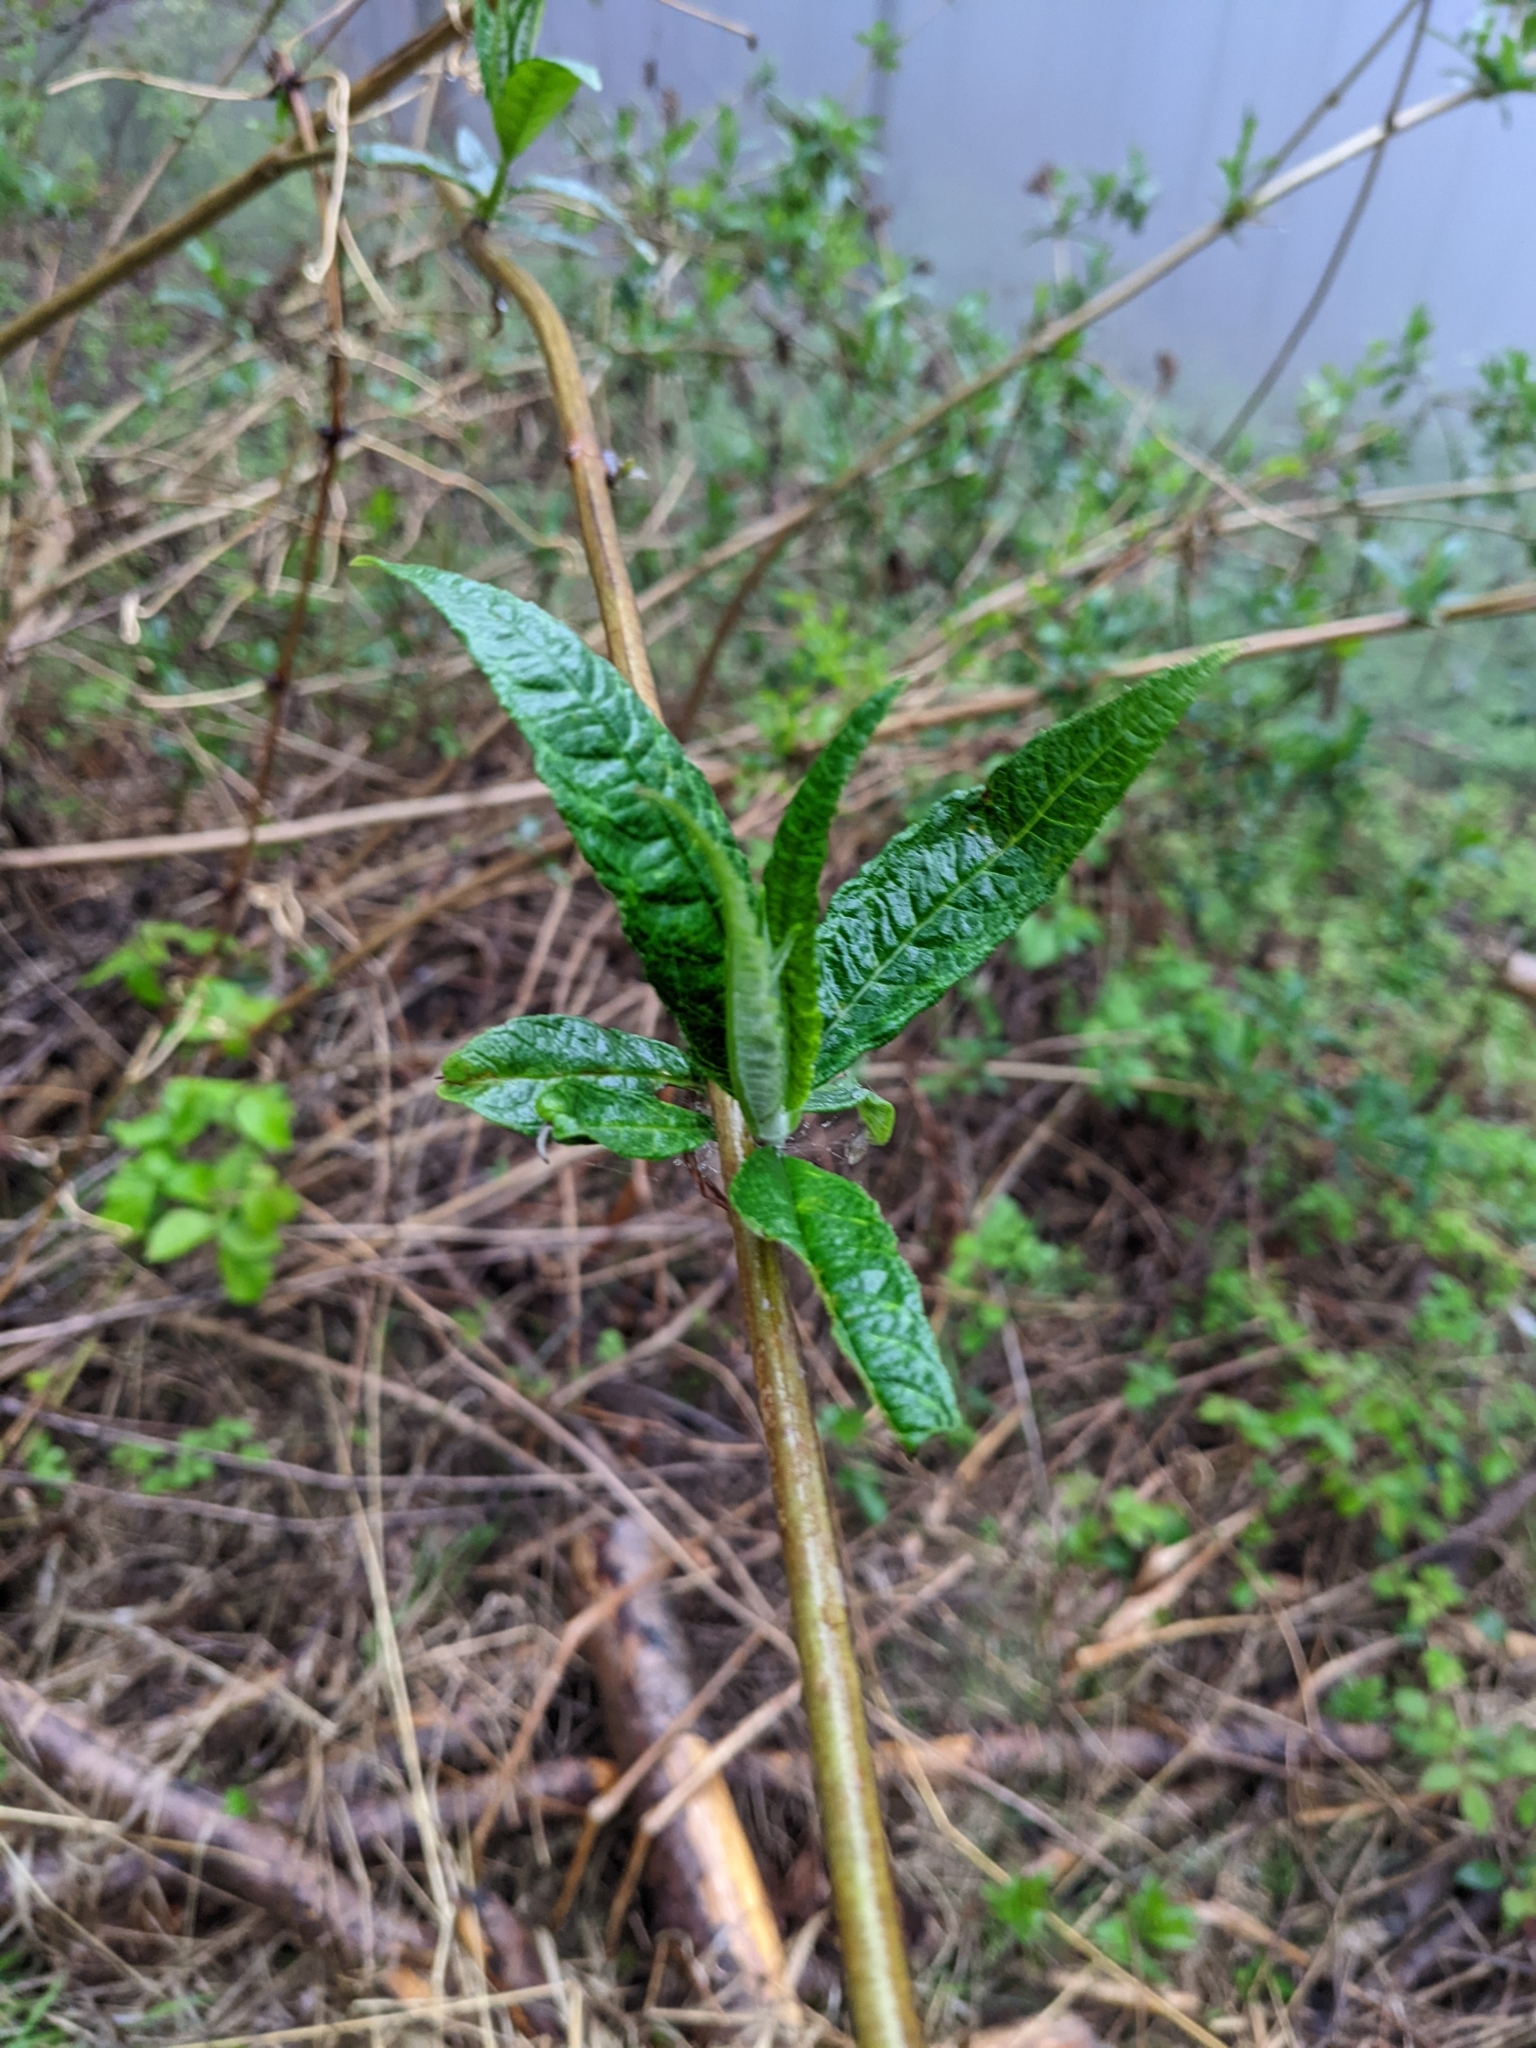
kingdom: Plantae
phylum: Tracheophyta
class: Magnoliopsida
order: Lamiales
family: Scrophulariaceae
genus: Buddleja
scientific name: Buddleja davidii
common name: Butterfly-bush
